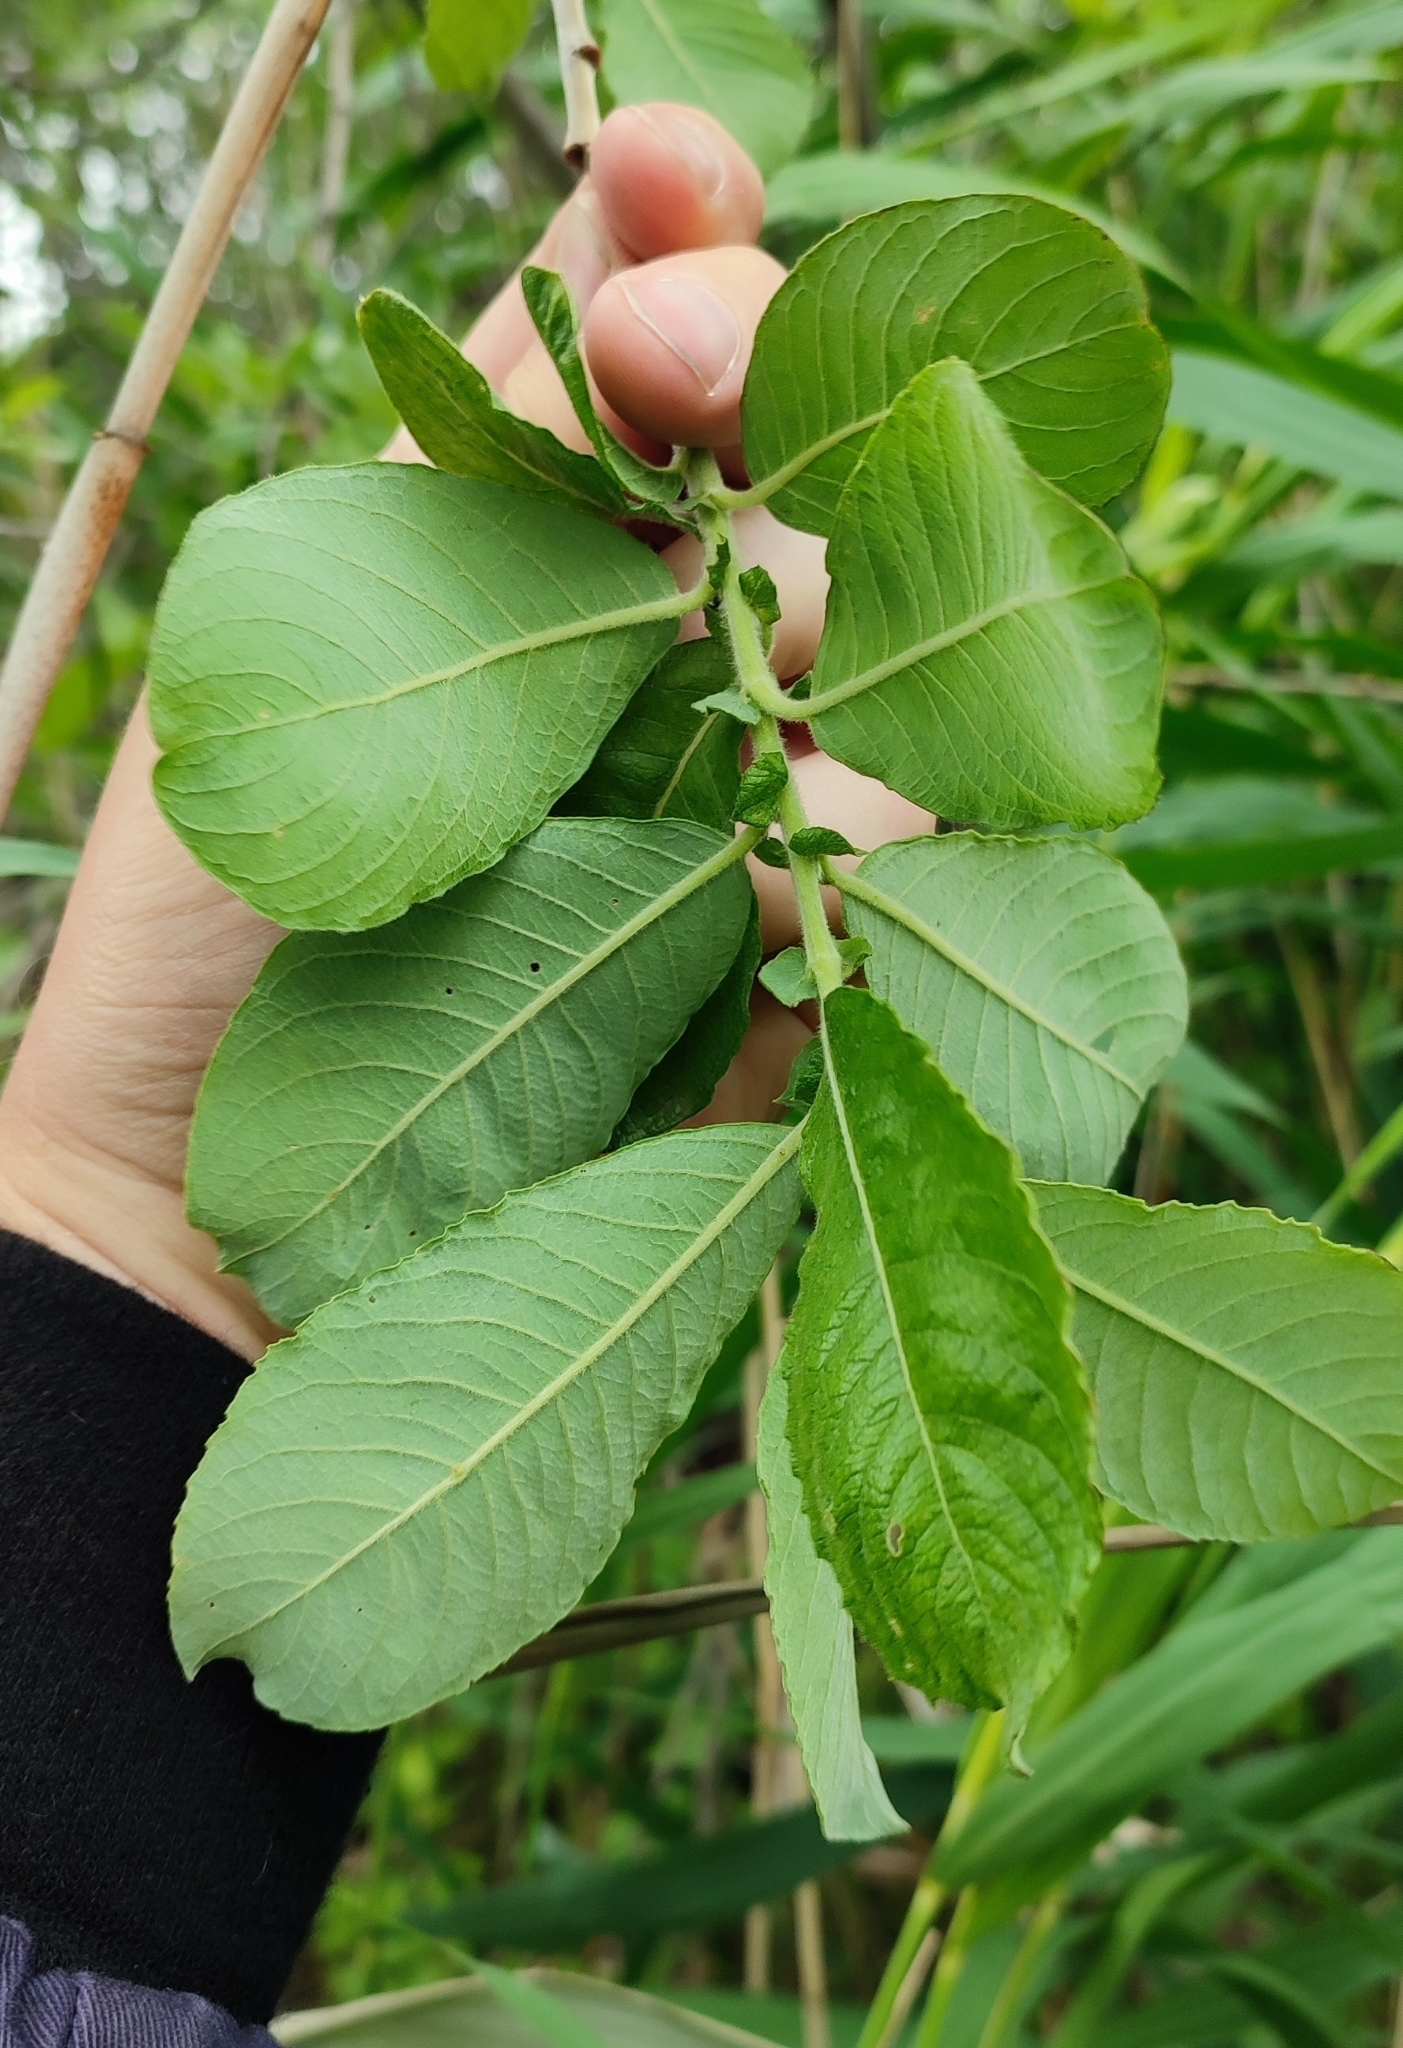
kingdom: Plantae
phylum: Tracheophyta
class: Magnoliopsida
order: Malpighiales
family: Salicaceae
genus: Salix
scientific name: Salix cinerea
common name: Common sallow
